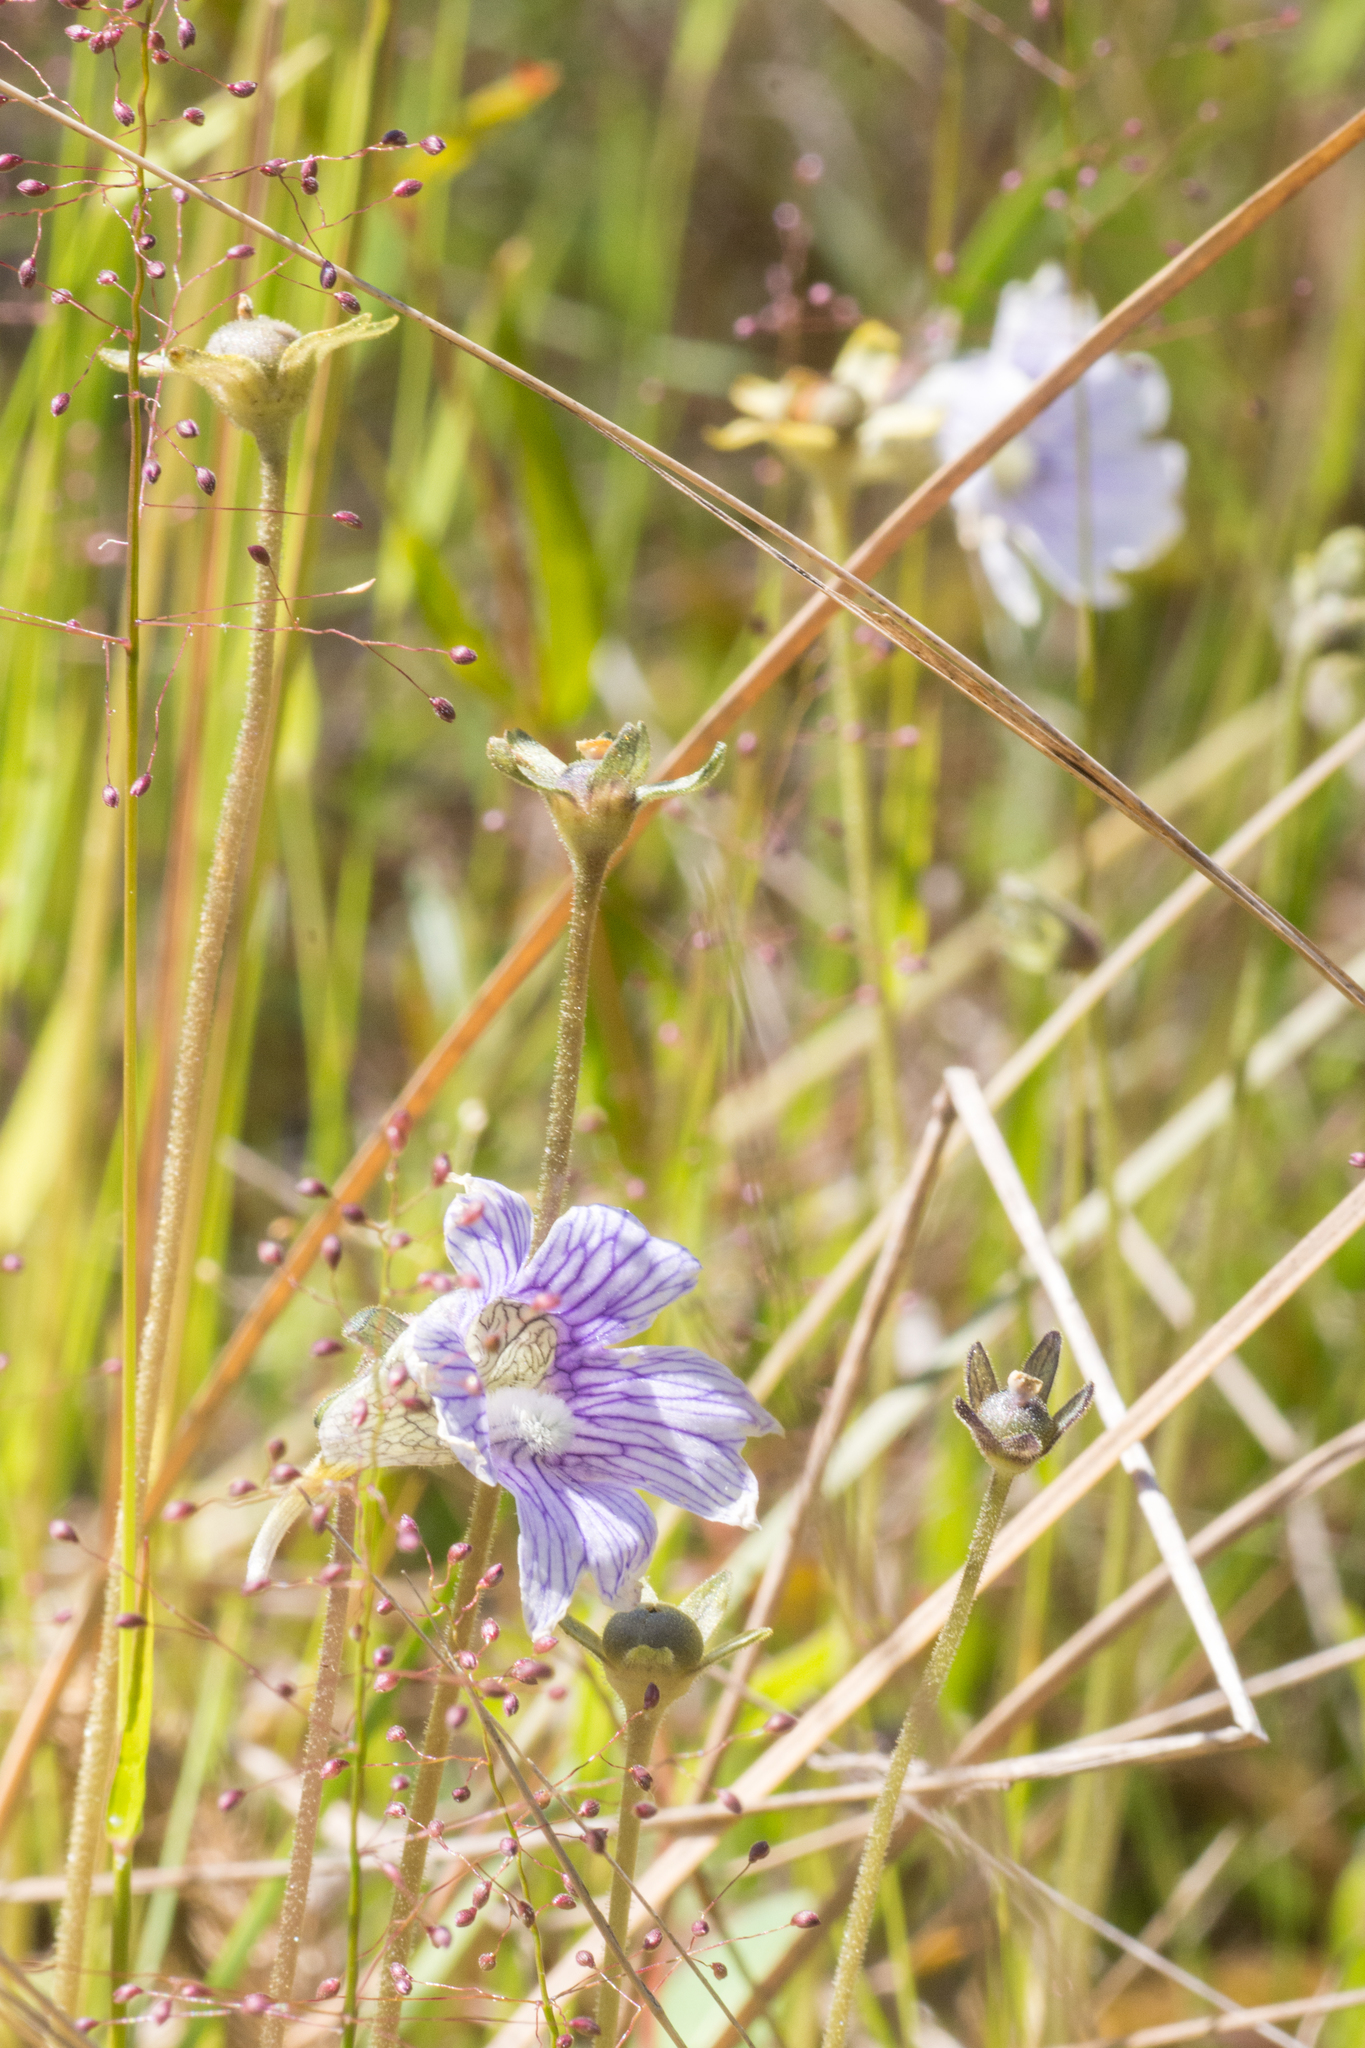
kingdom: Plantae
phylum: Tracheophyta
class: Magnoliopsida
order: Lamiales
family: Lentibulariaceae
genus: Pinguicula
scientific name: Pinguicula caerulea
